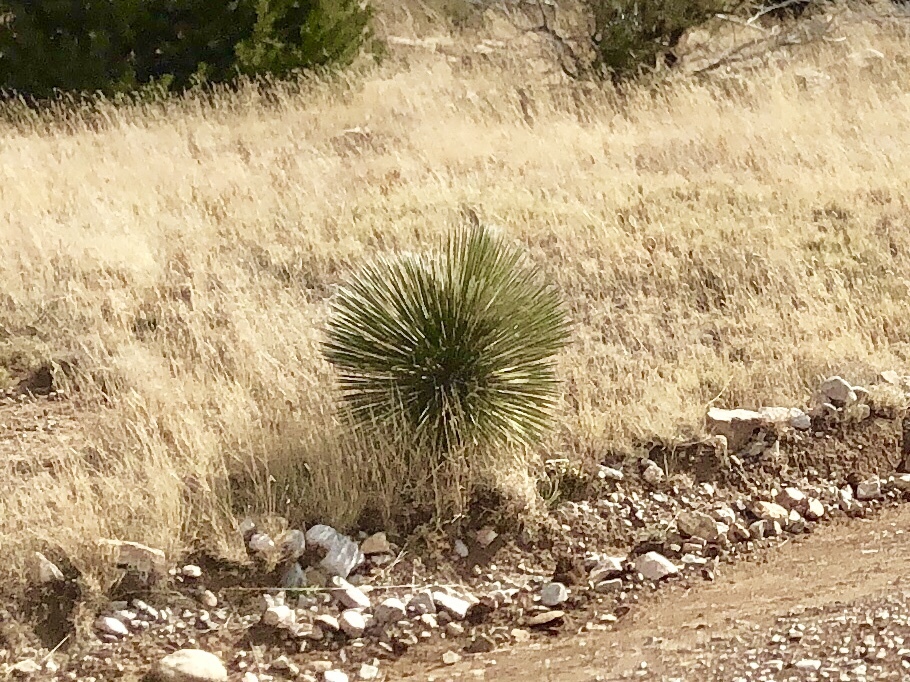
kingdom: Plantae
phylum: Tracheophyta
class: Liliopsida
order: Asparagales
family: Asparagaceae
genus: Yucca
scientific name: Yucca elata
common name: Palmella
